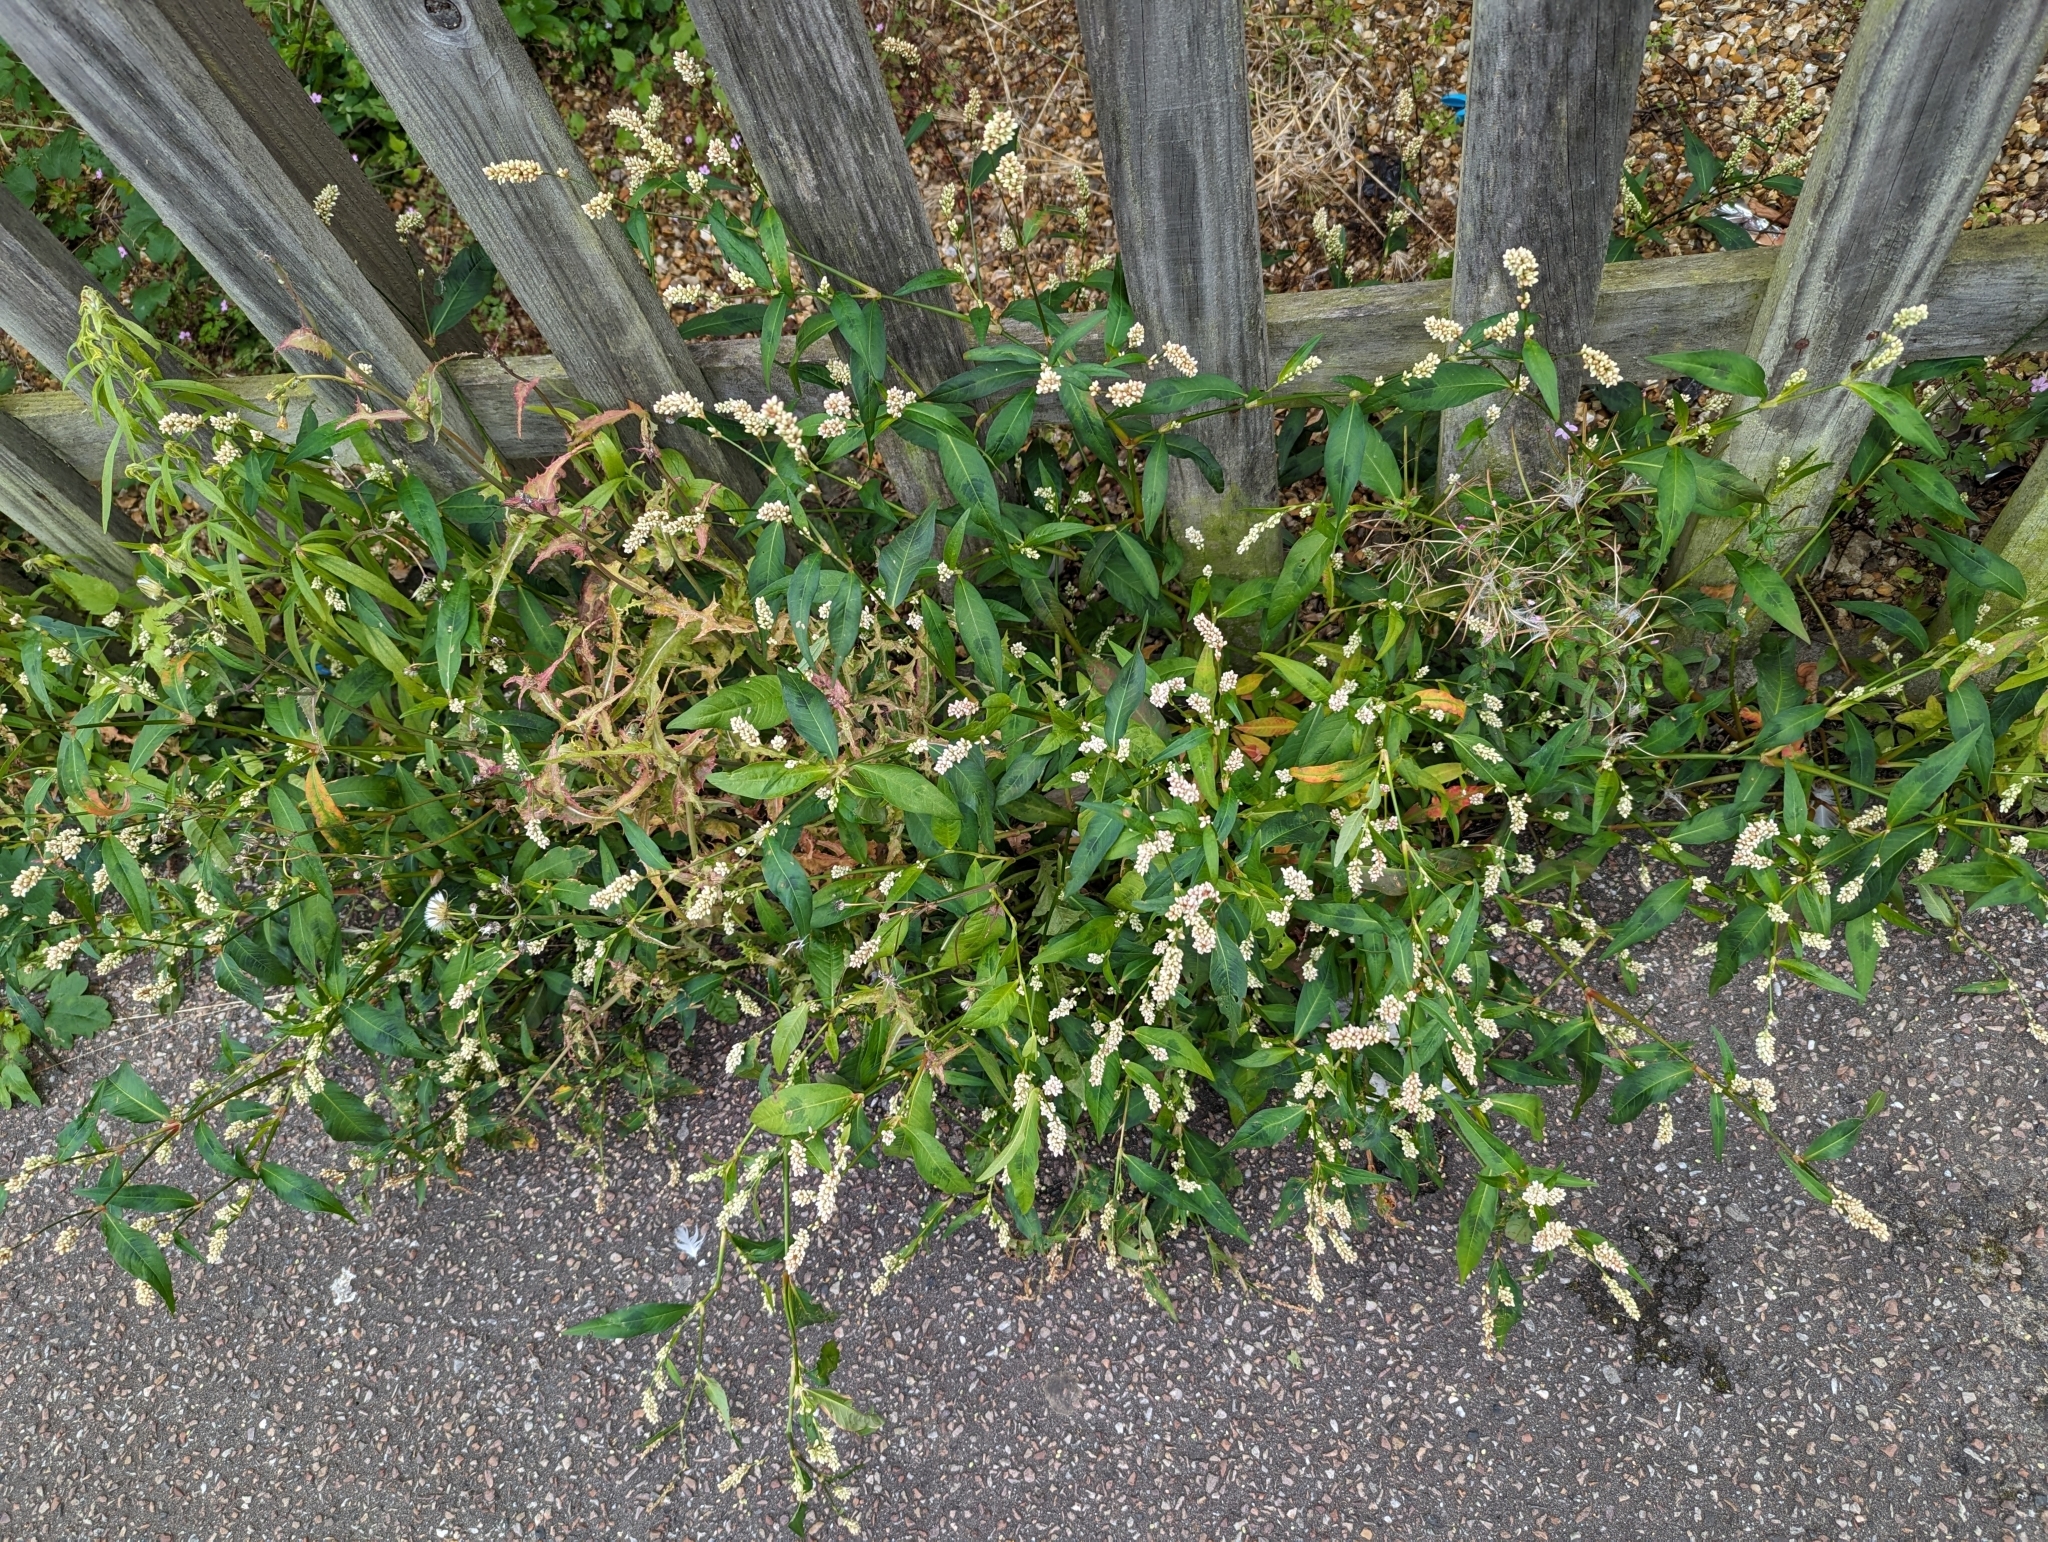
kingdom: Plantae
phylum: Tracheophyta
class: Magnoliopsida
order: Caryophyllales
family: Polygonaceae
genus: Persicaria
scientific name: Persicaria maculosa
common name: Redshank
